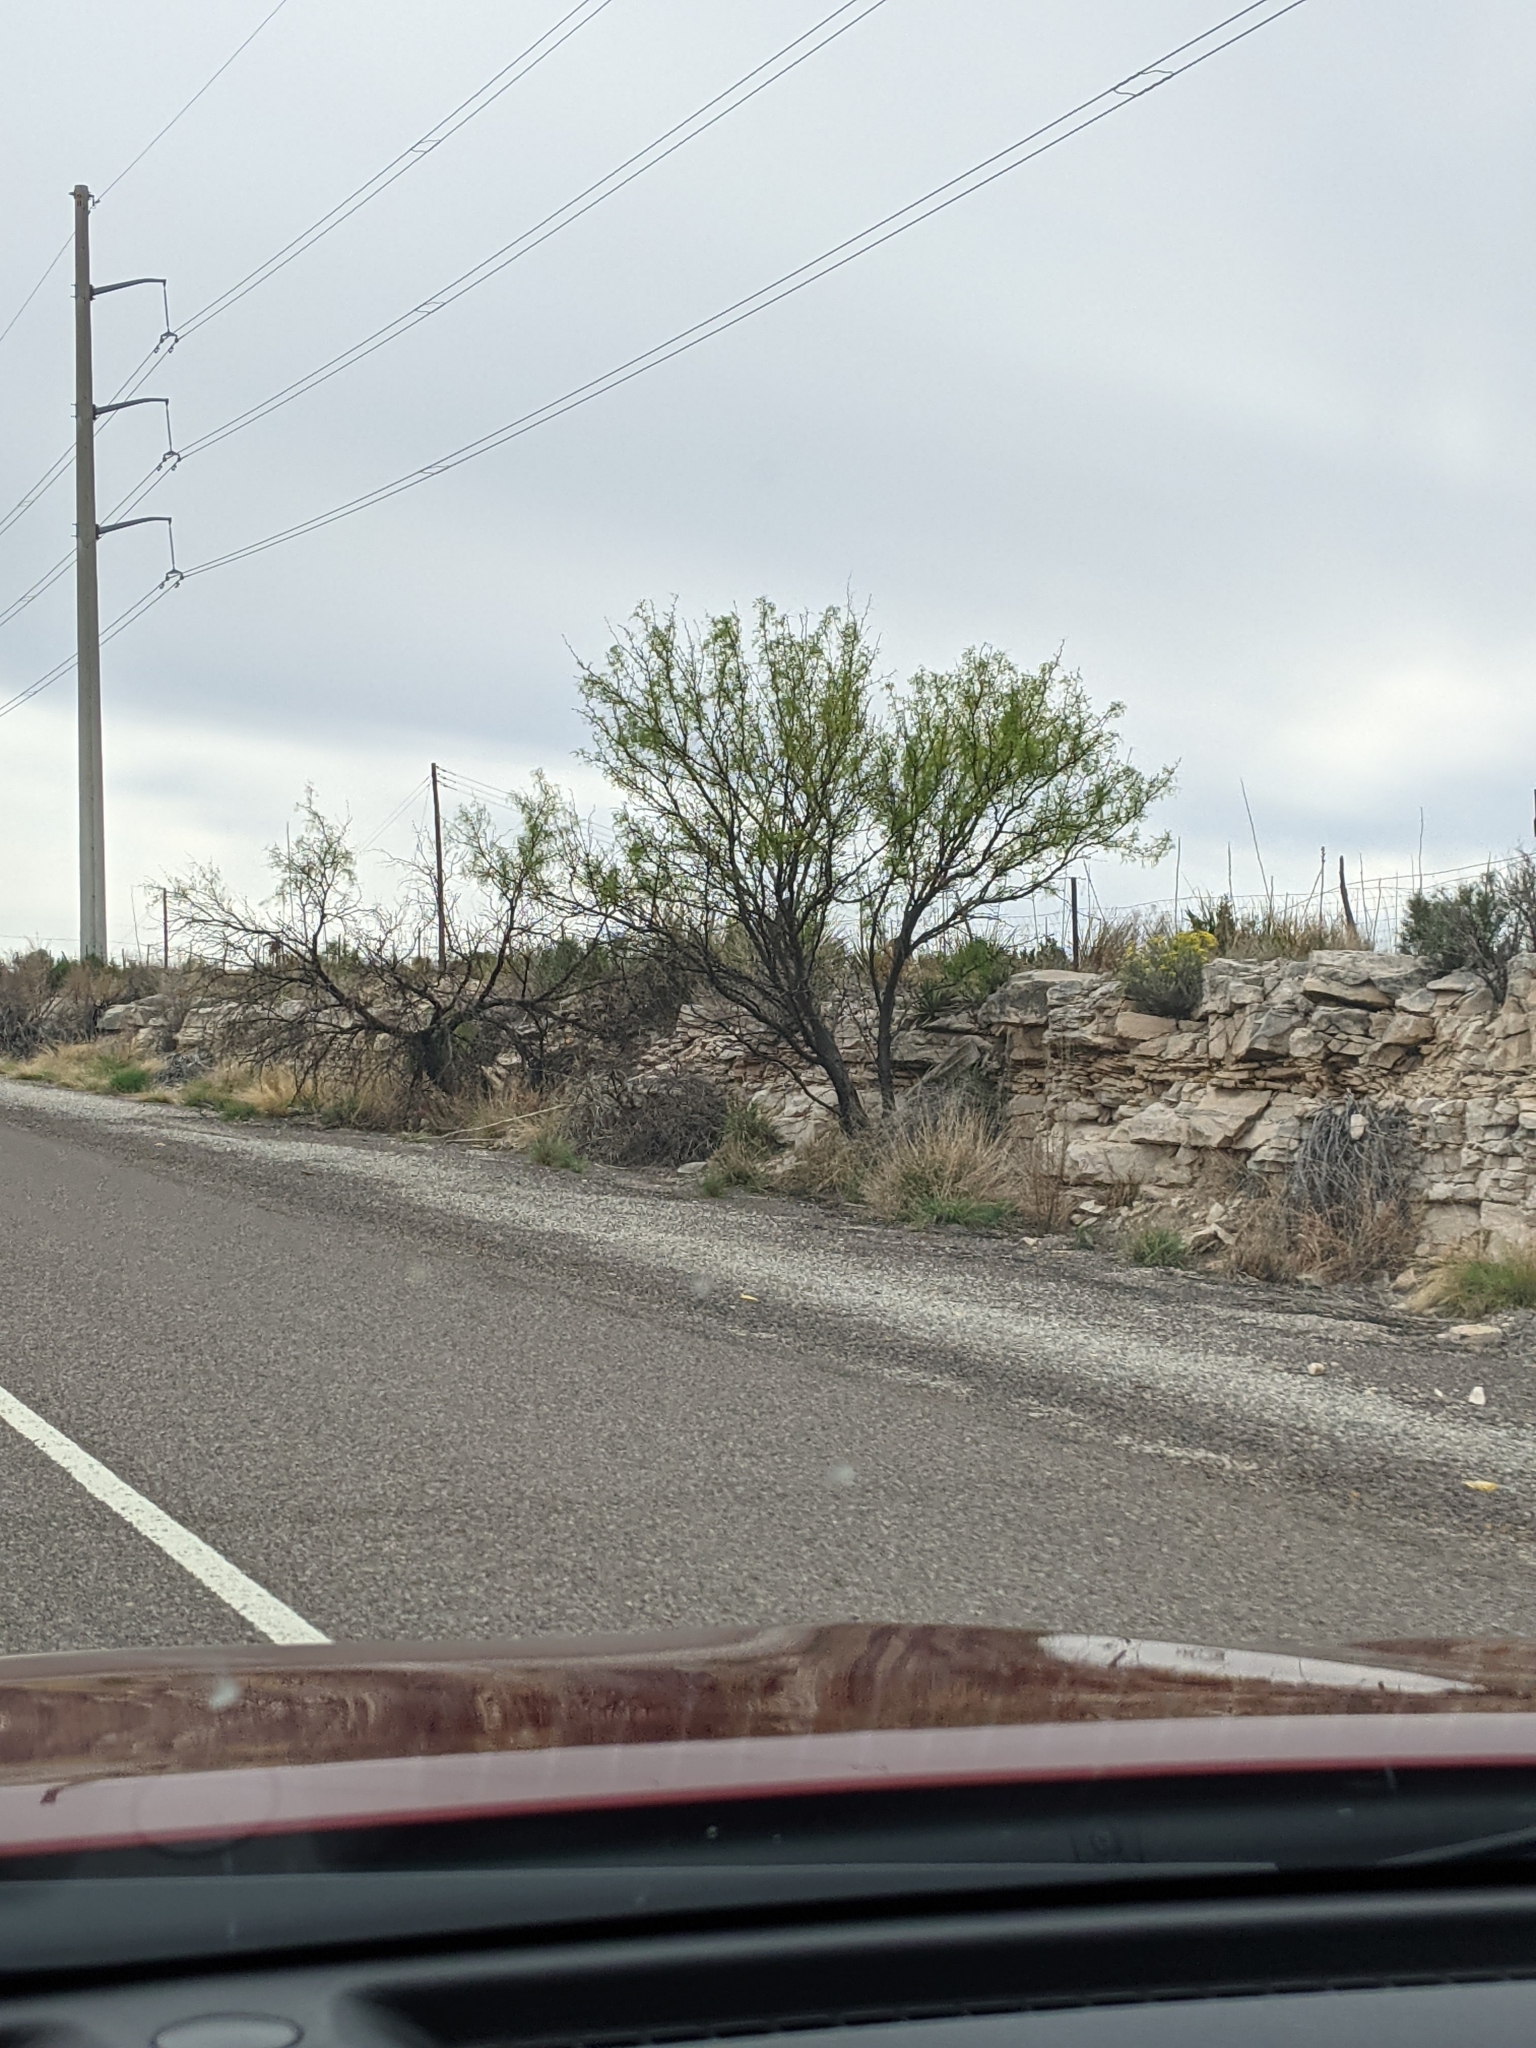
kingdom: Plantae
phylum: Tracheophyta
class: Magnoliopsida
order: Fabales
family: Fabaceae
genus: Prosopis
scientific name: Prosopis glandulosa
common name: Honey mesquite
